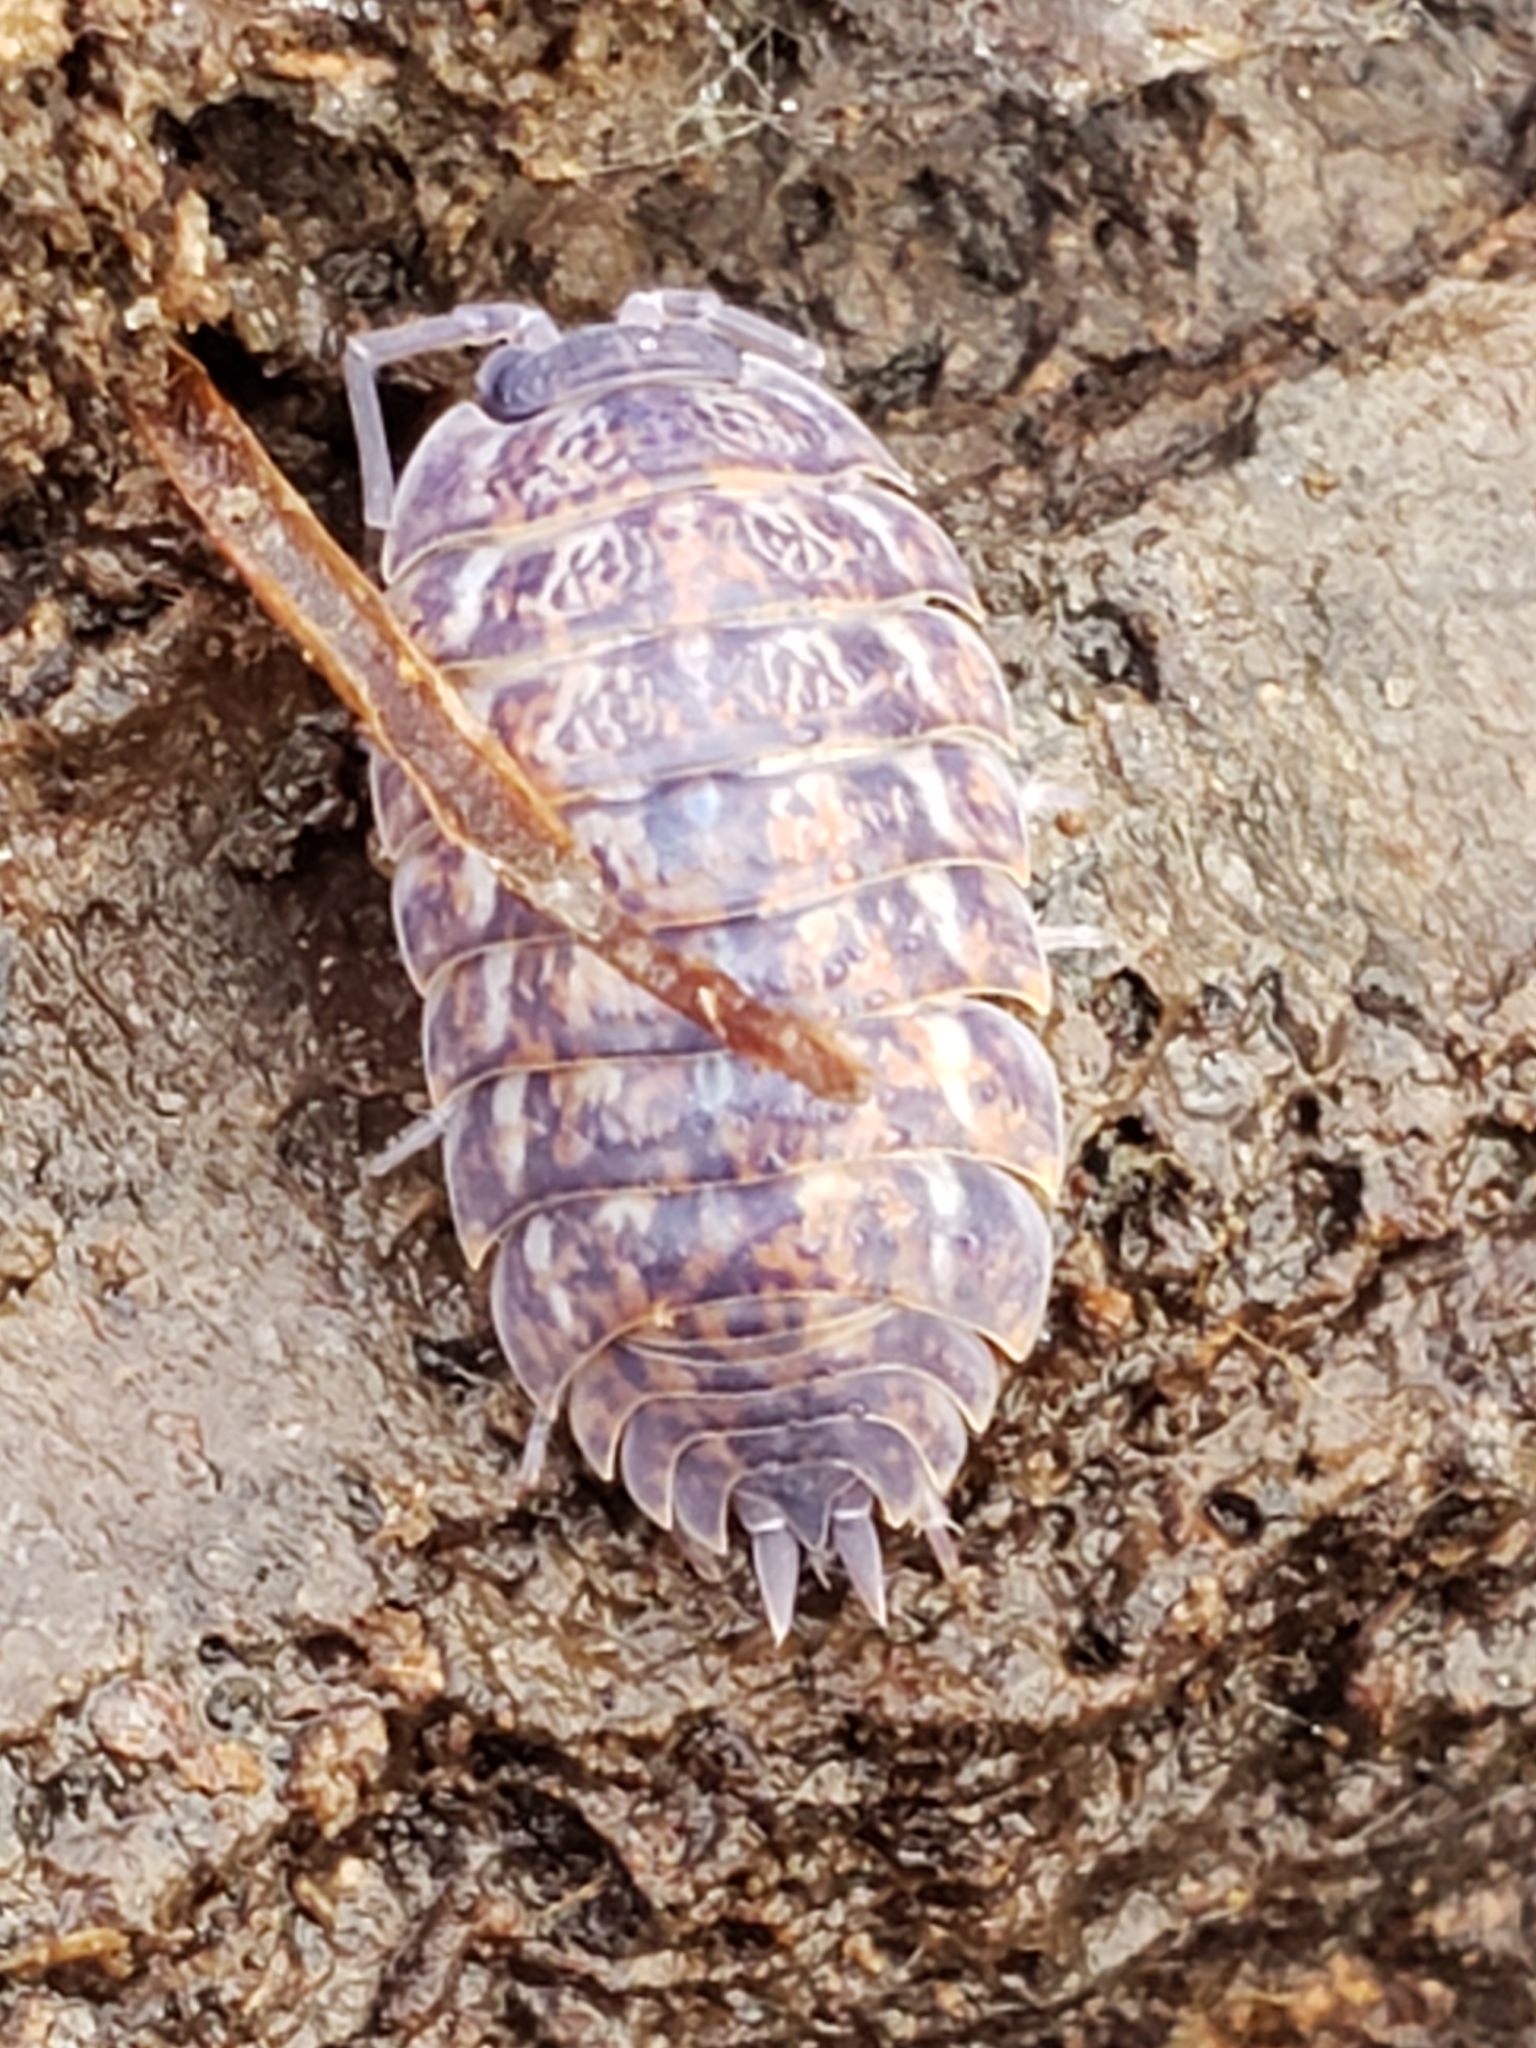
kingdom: Viruses
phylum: Nucleocytoviricota
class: Megaviricetes
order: Pimascovirales
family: Iridoviridae
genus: Iridovirus
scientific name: Iridovirus Invertebrate iridescent virus 31
